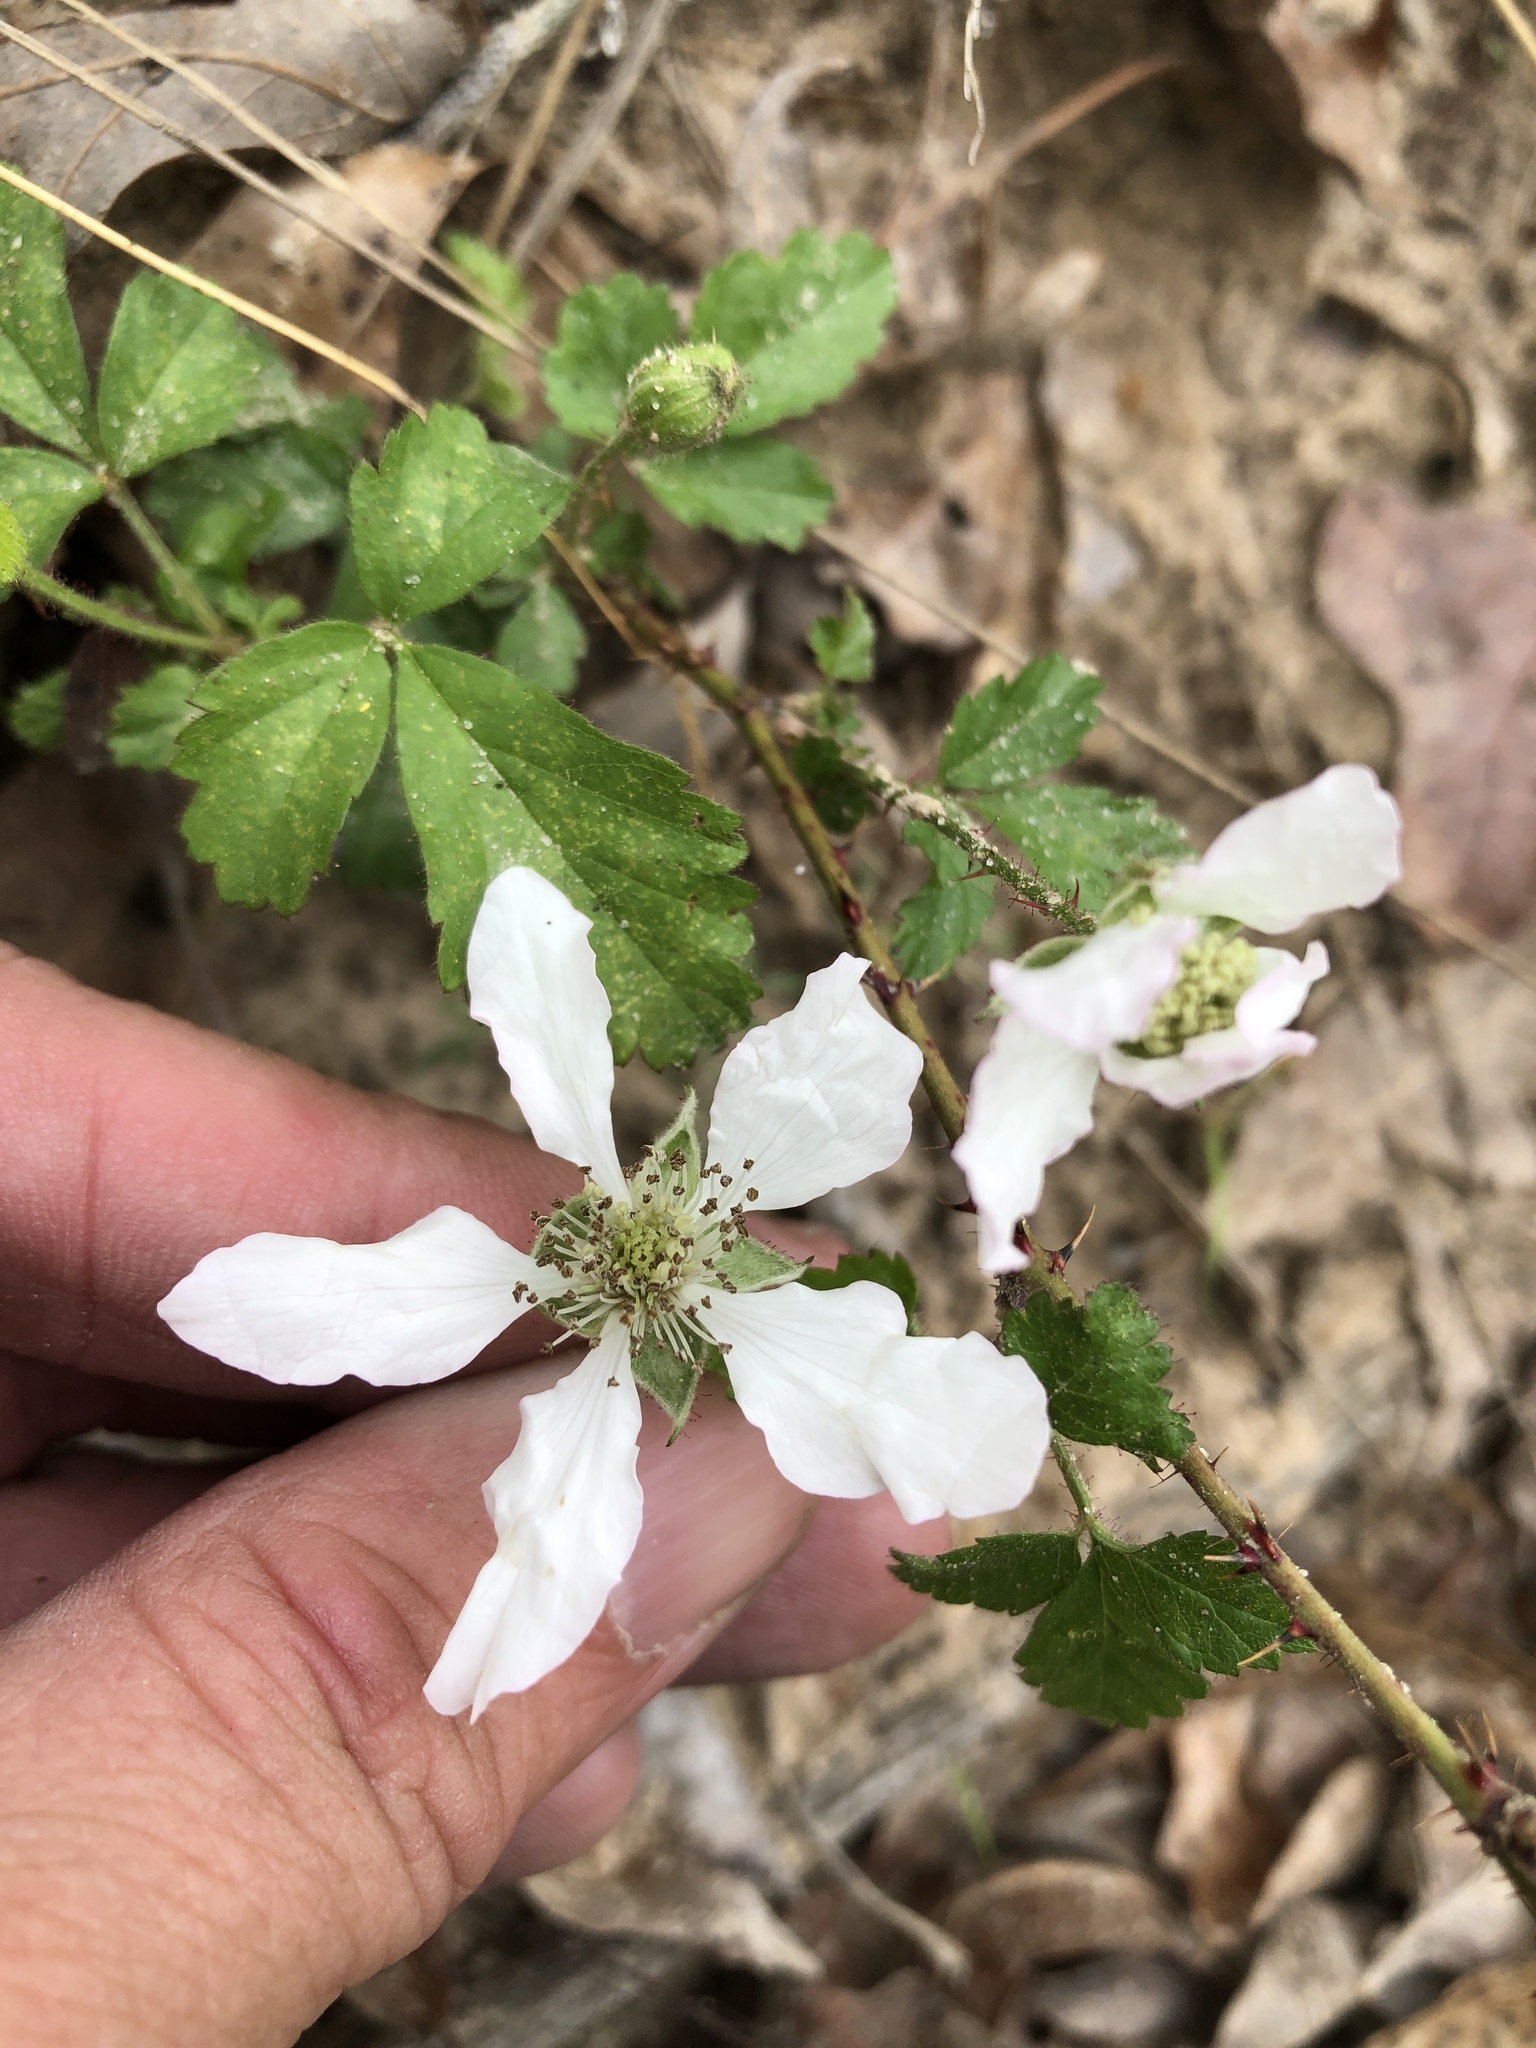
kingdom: Plantae
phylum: Tracheophyta
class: Magnoliopsida
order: Rosales
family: Rosaceae
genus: Rubus
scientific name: Rubus trivialis
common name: Southern dewberry
